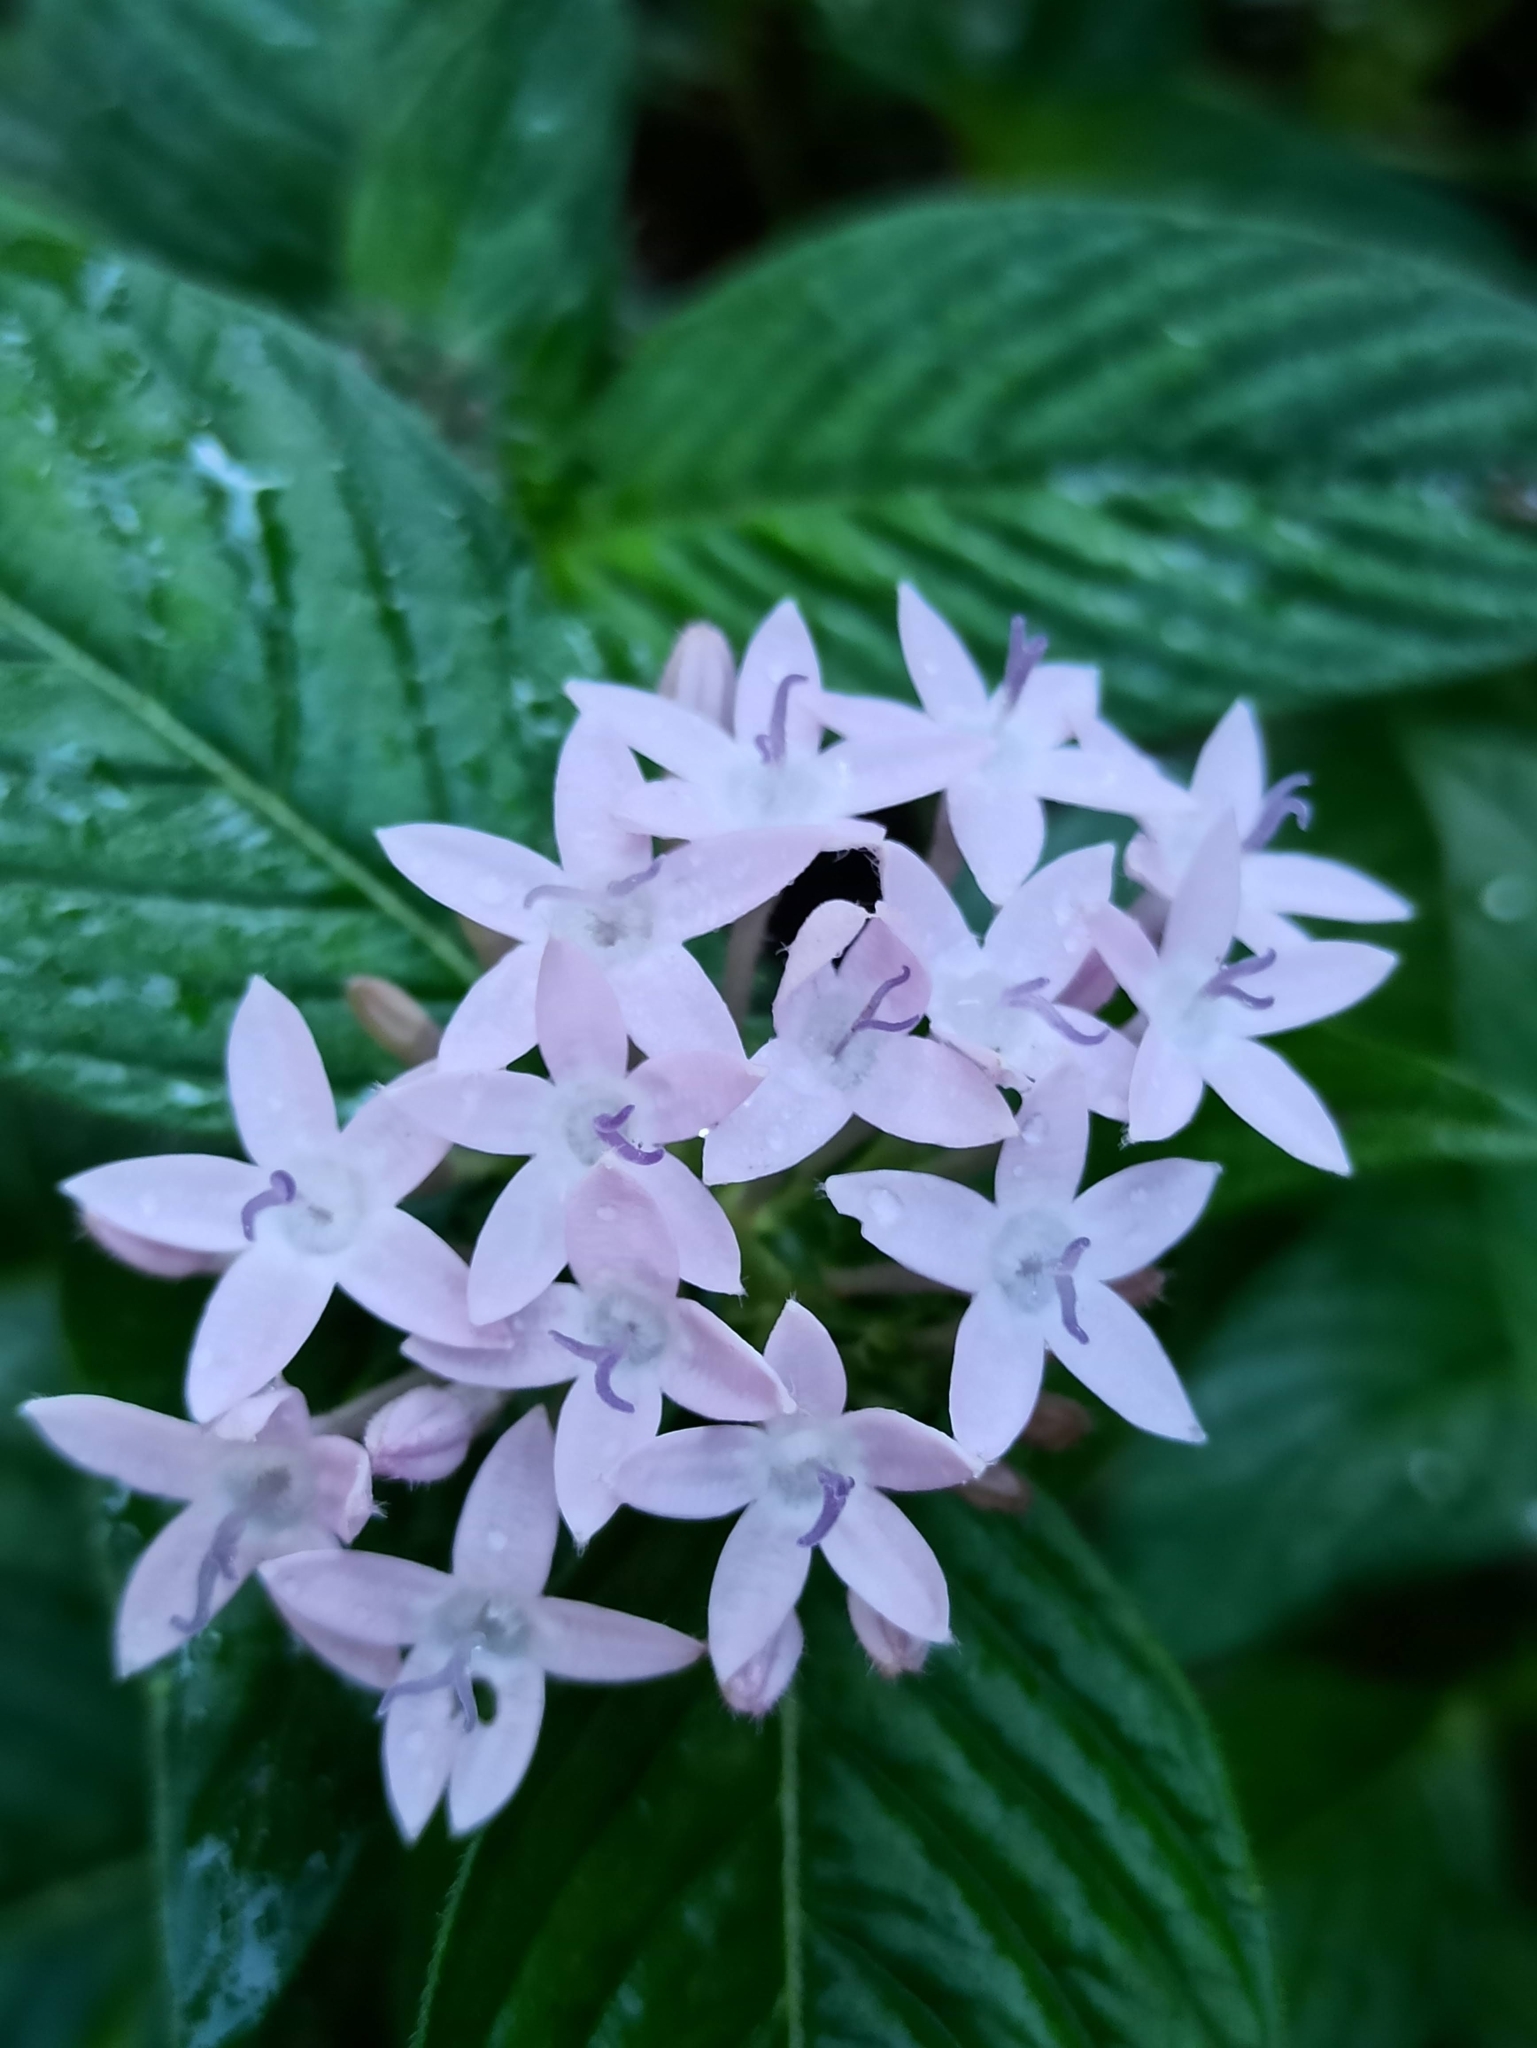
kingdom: Plantae
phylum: Tracheophyta
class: Magnoliopsida
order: Gentianales
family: Rubiaceae
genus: Pentas
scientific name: Pentas lanceolata
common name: Egyptian starcluster
